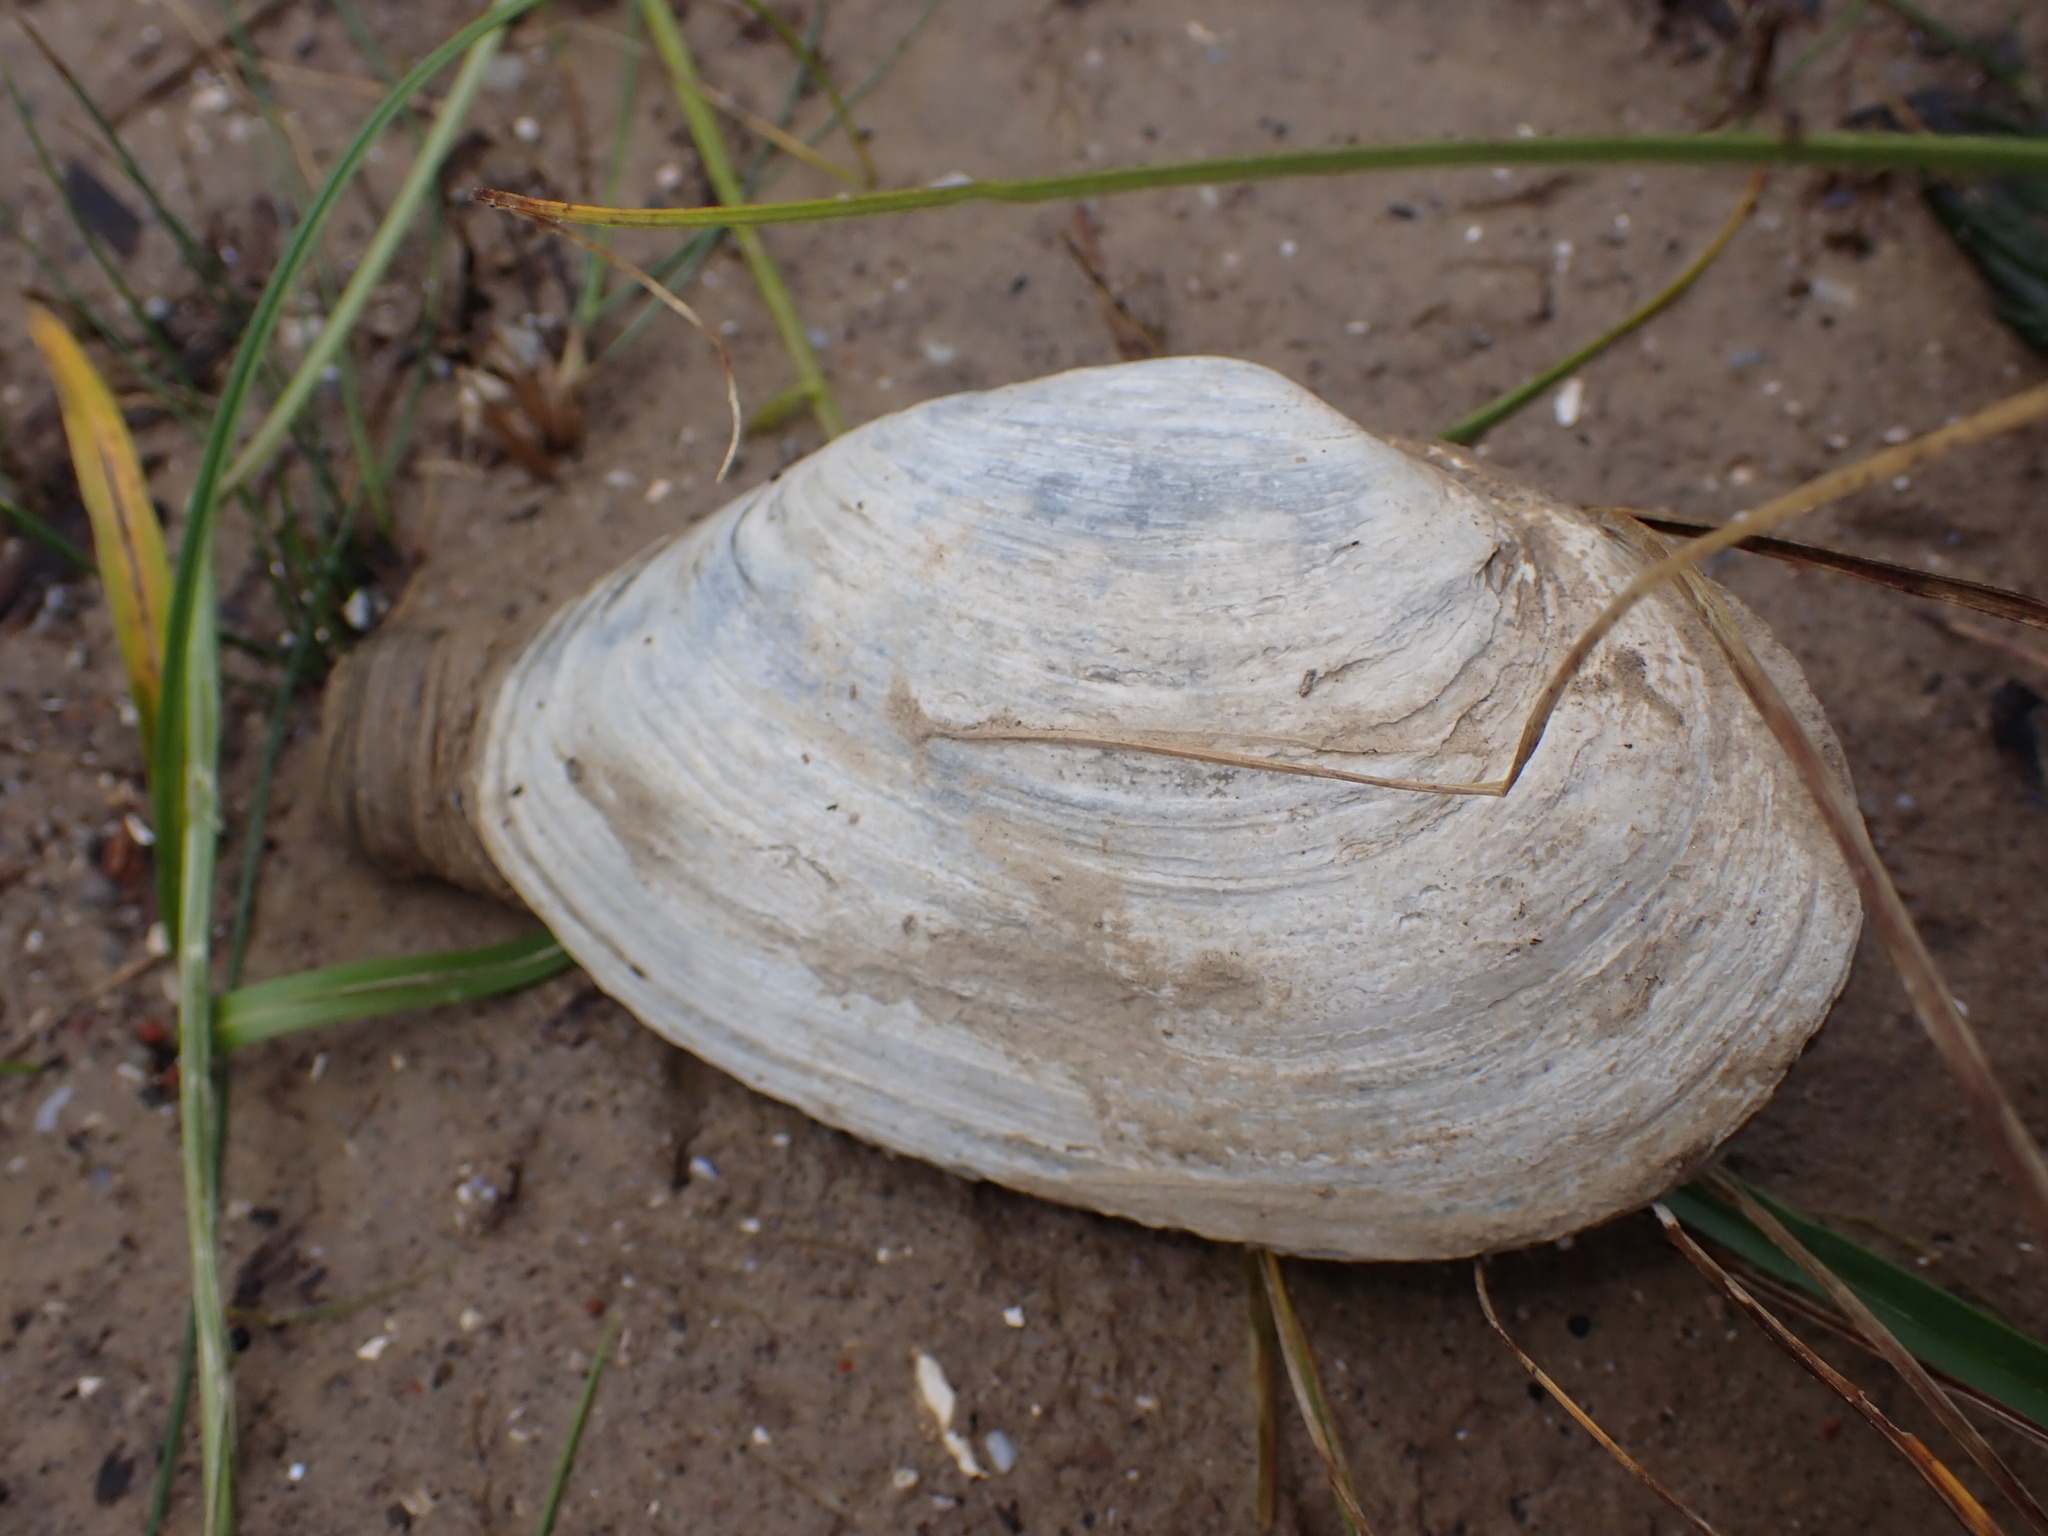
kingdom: Animalia
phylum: Mollusca
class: Bivalvia
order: Myida
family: Myidae
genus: Mya
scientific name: Mya arenaria
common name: Soft-shelled clam
